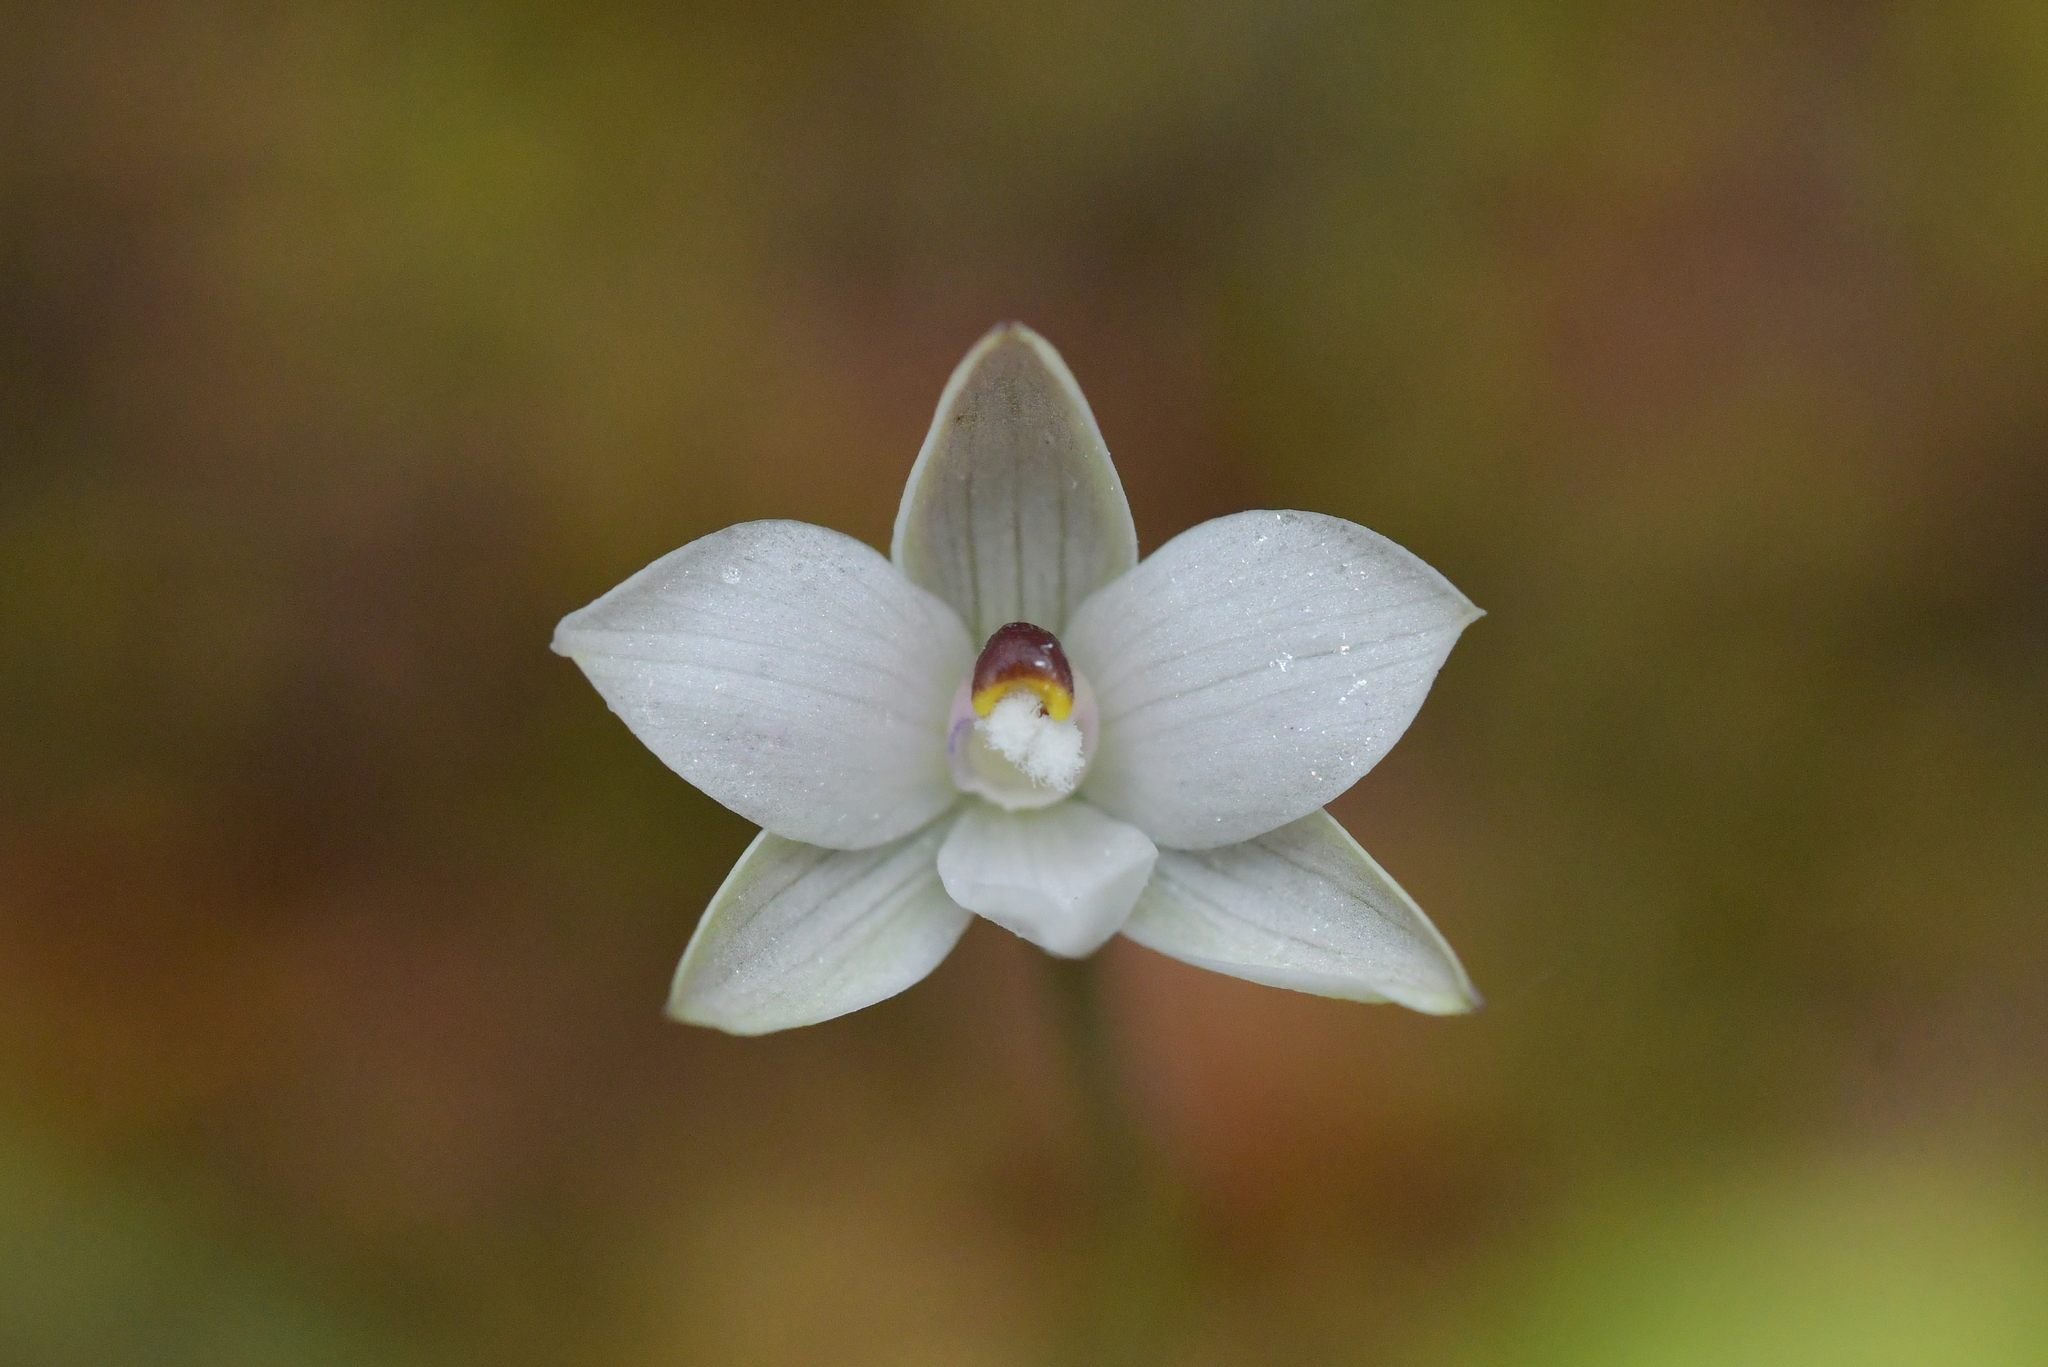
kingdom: Plantae
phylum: Tracheophyta
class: Liliopsida
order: Asparagales
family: Orchidaceae
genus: Thelymitra
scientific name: Thelymitra longifolia
